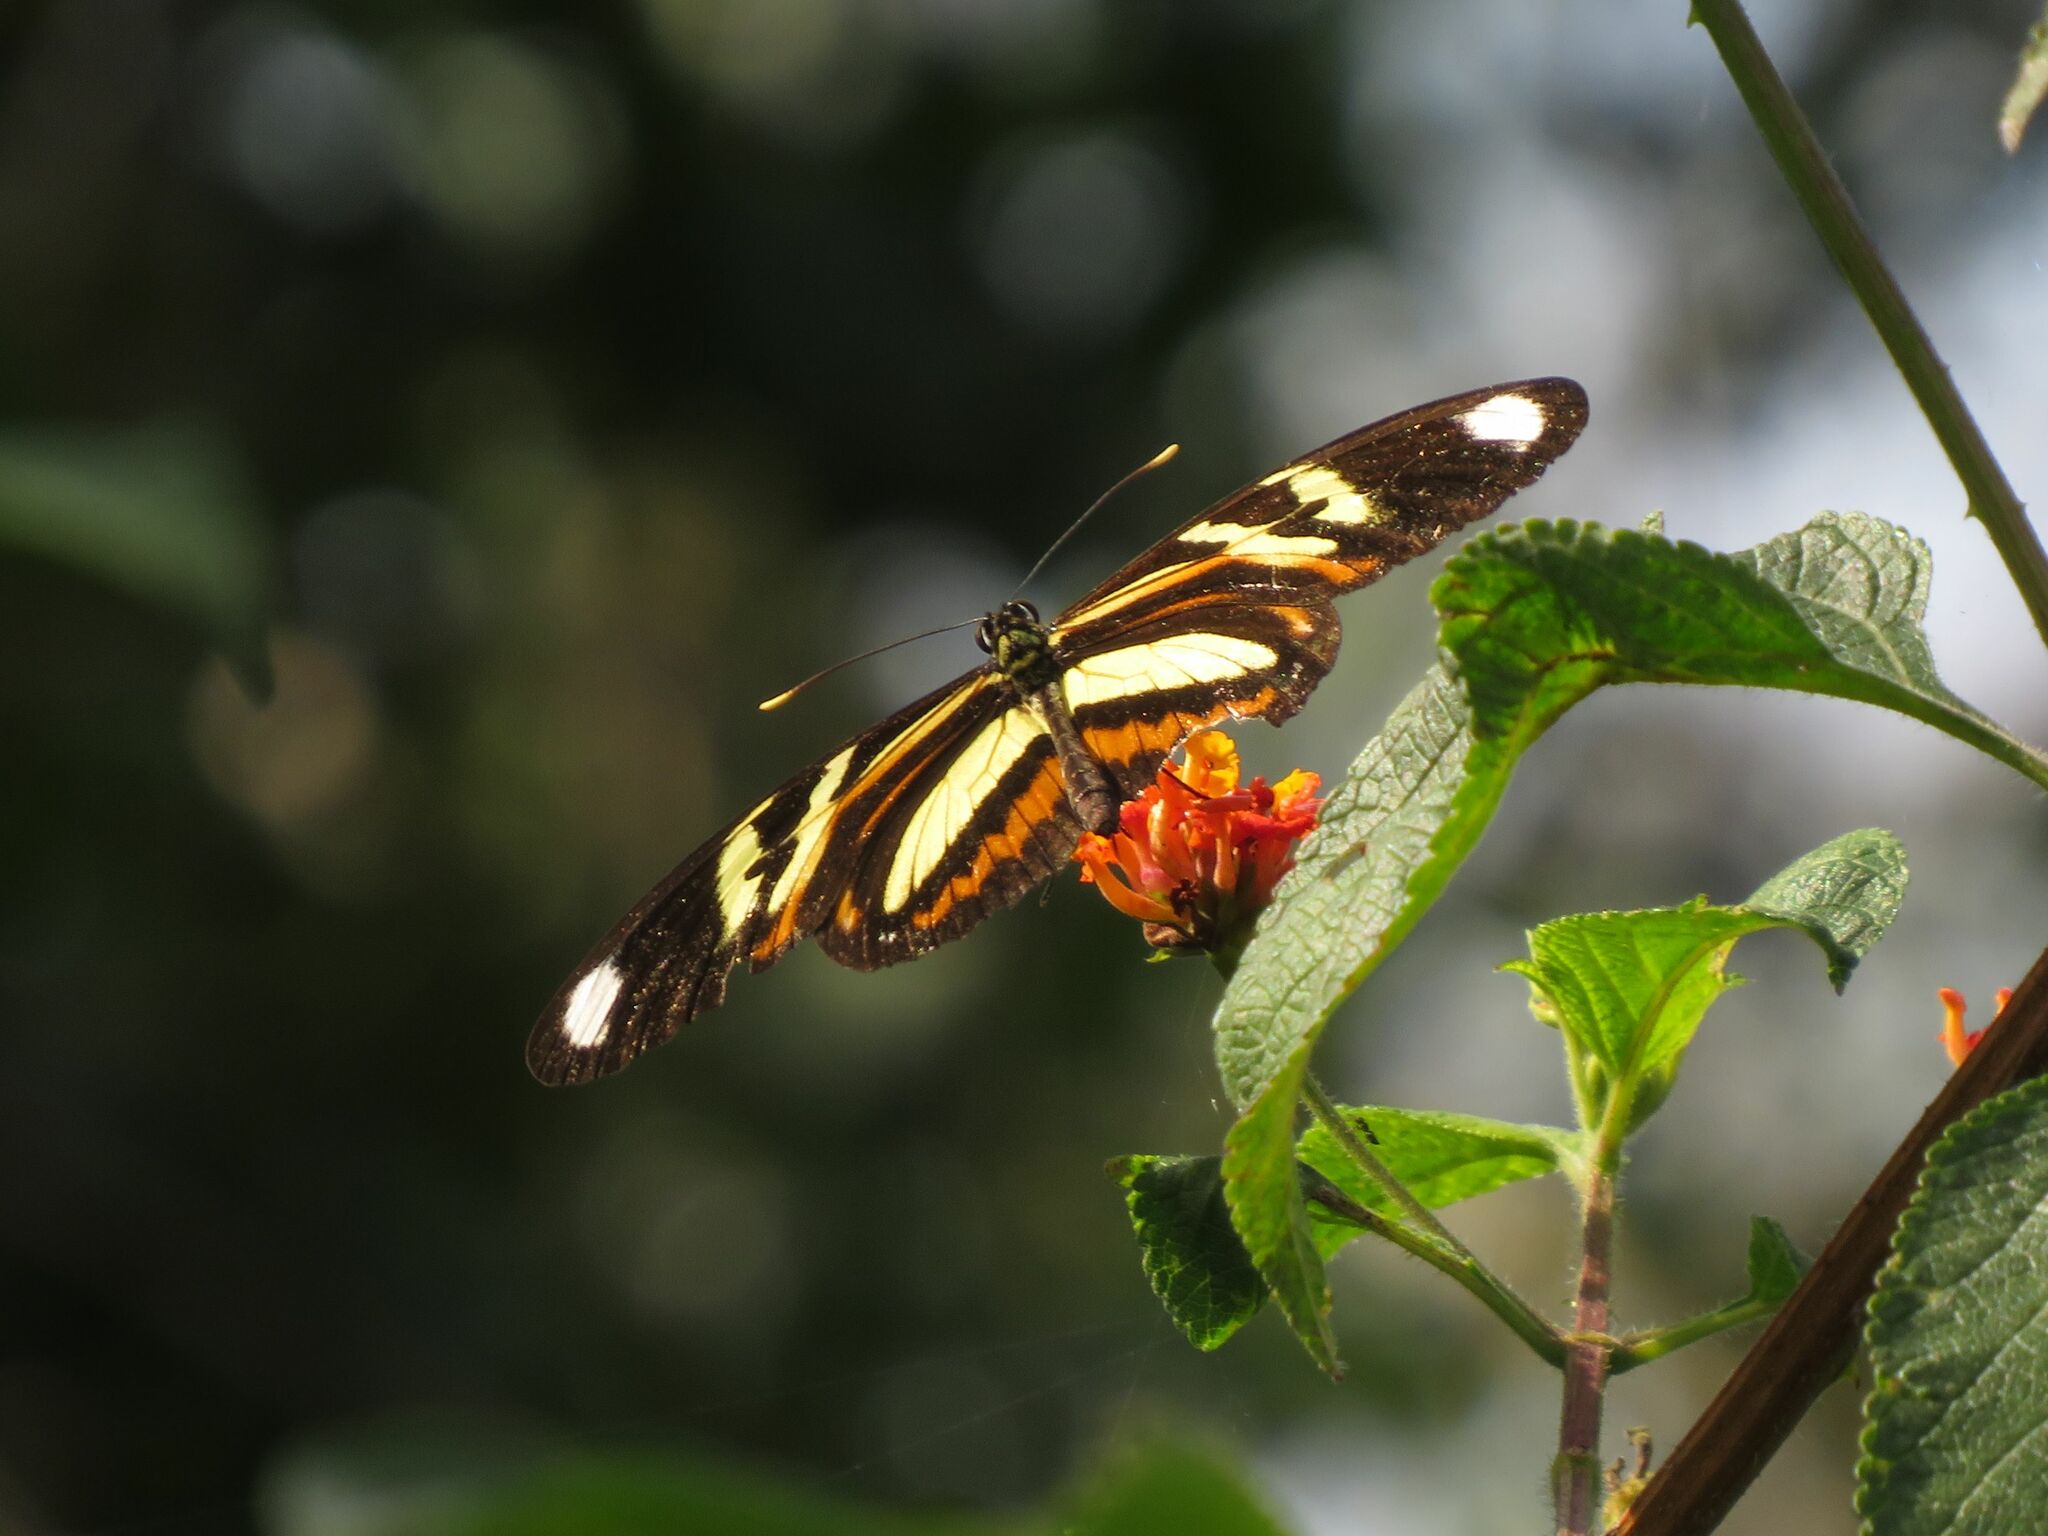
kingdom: Animalia
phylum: Arthropoda
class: Insecta
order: Lepidoptera
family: Nymphalidae
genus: Heliconius
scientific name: Heliconius ethilla
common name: Ethilia longwing
